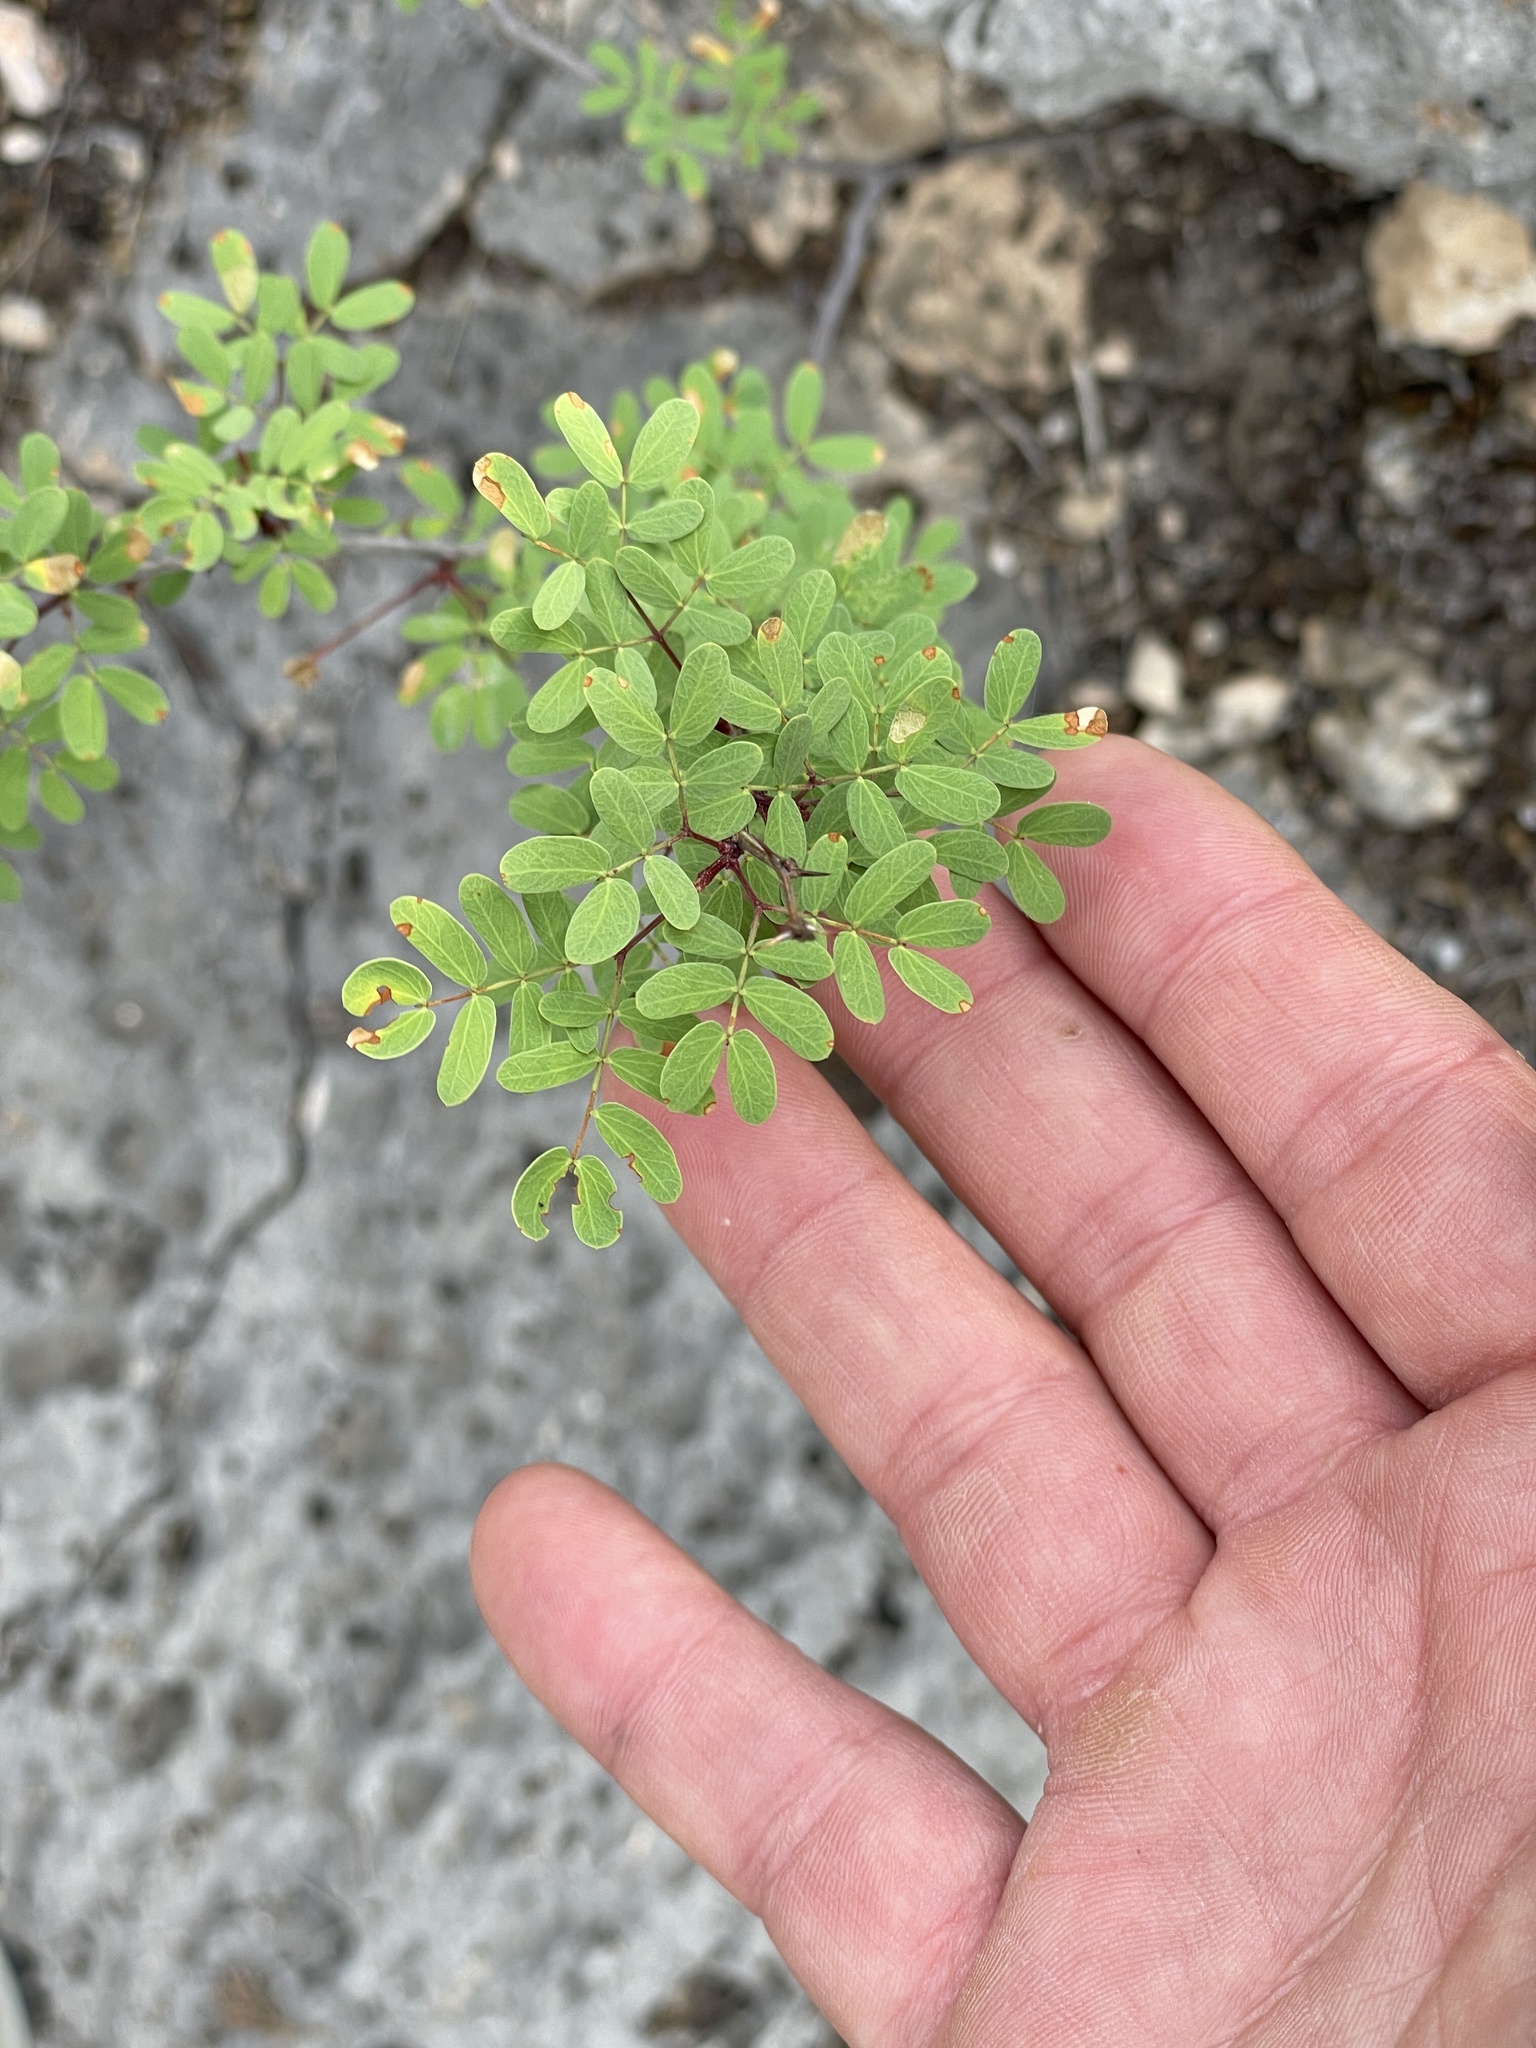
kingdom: Plantae
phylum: Tracheophyta
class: Magnoliopsida
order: Fabales
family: Fabaceae
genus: Senegalia
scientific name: Senegalia roemeriana
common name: Roemer's acacia
